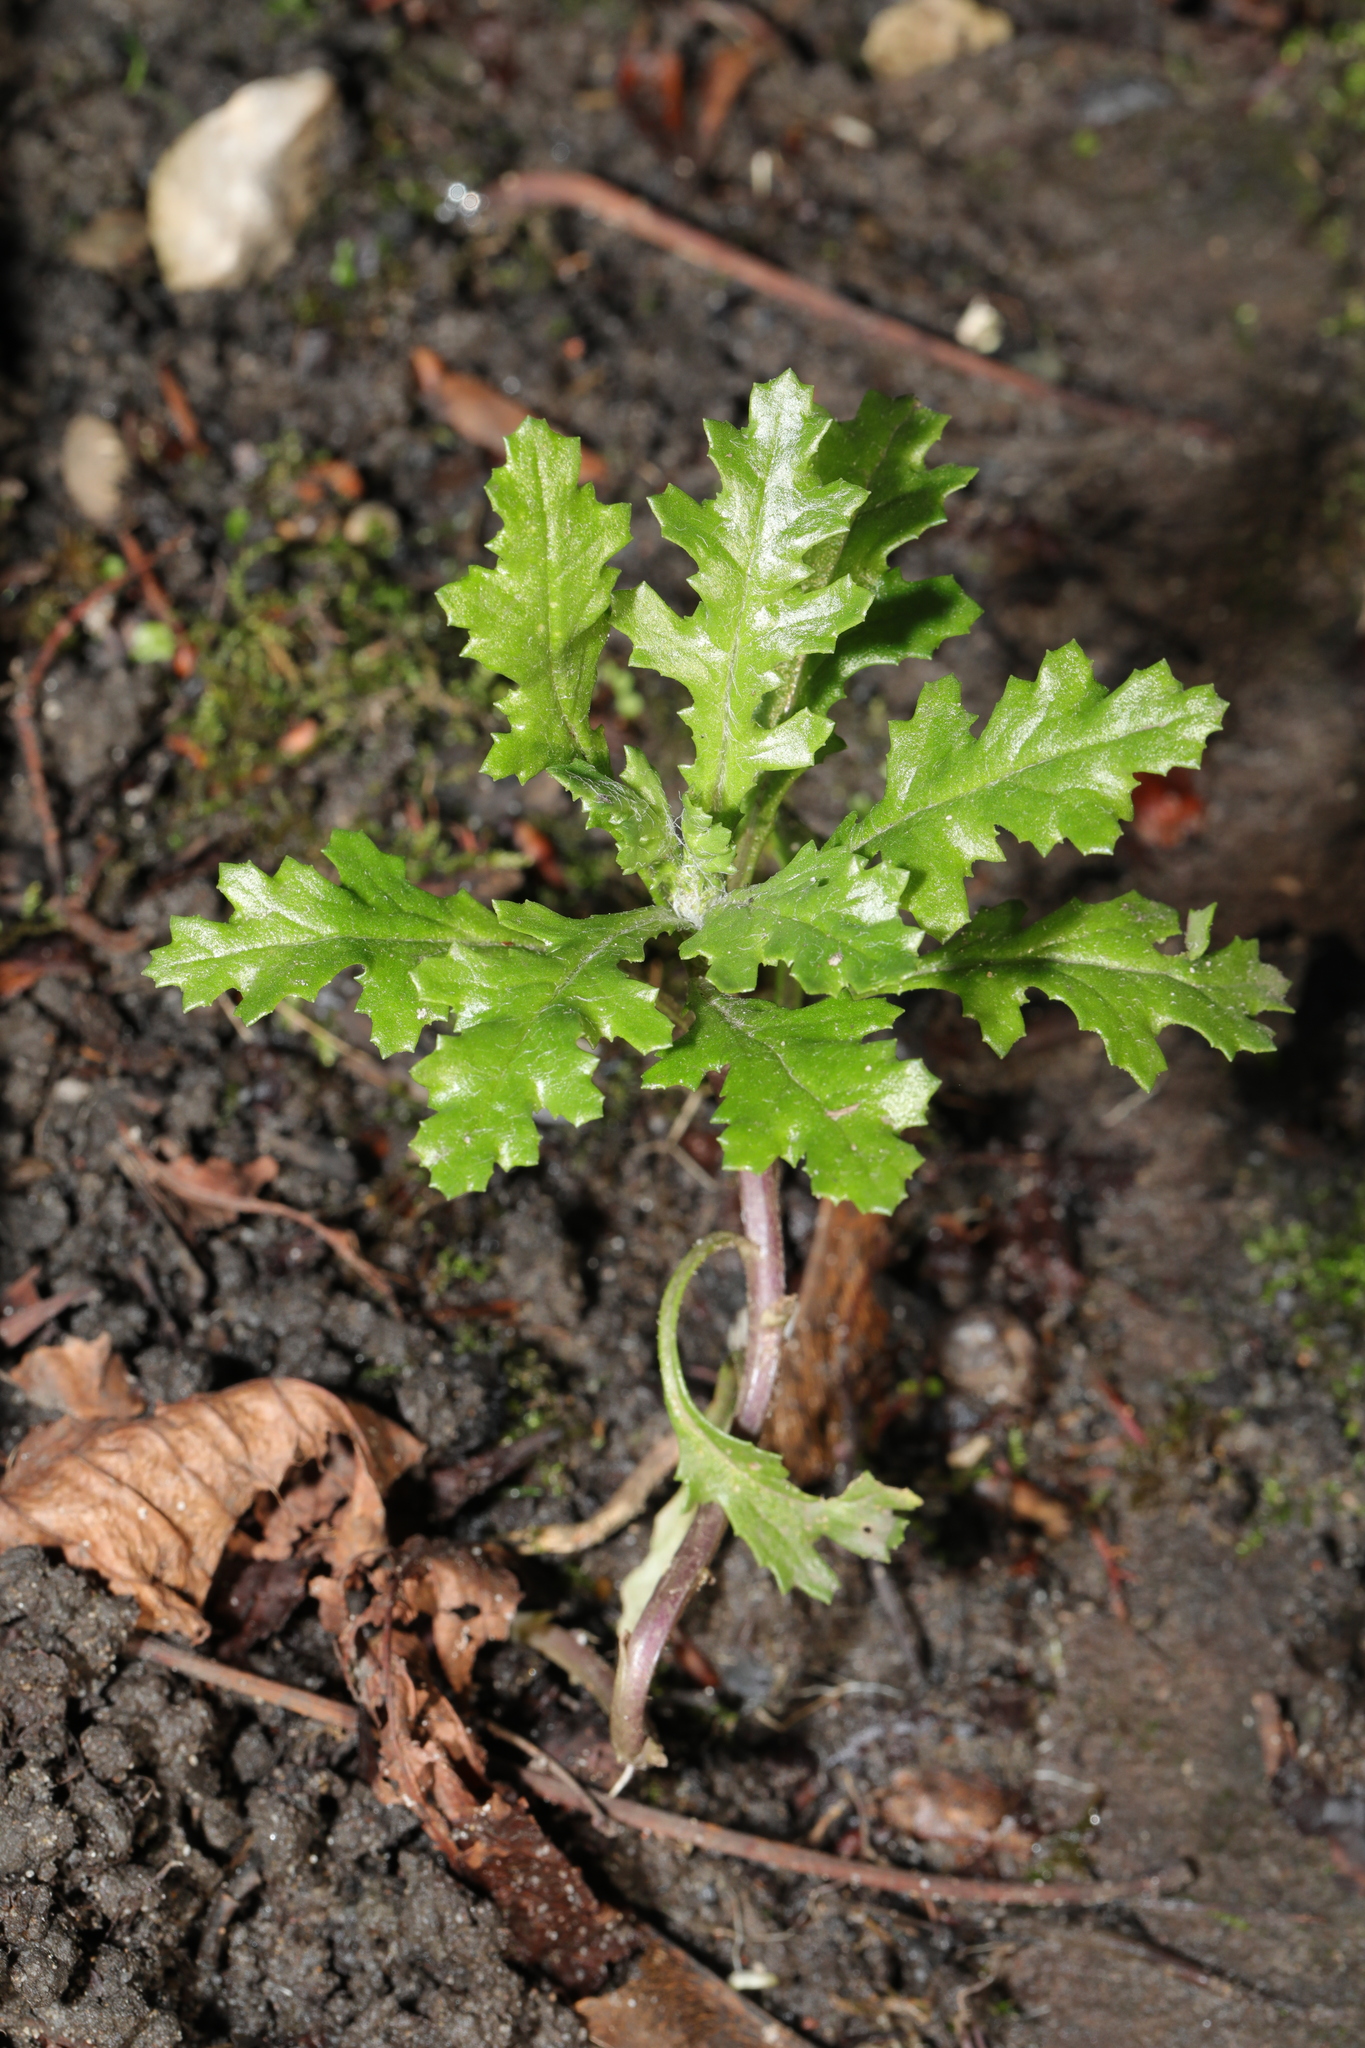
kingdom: Plantae
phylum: Tracheophyta
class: Magnoliopsida
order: Asterales
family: Asteraceae
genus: Senecio
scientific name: Senecio vulgaris
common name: Old-man-in-the-spring
